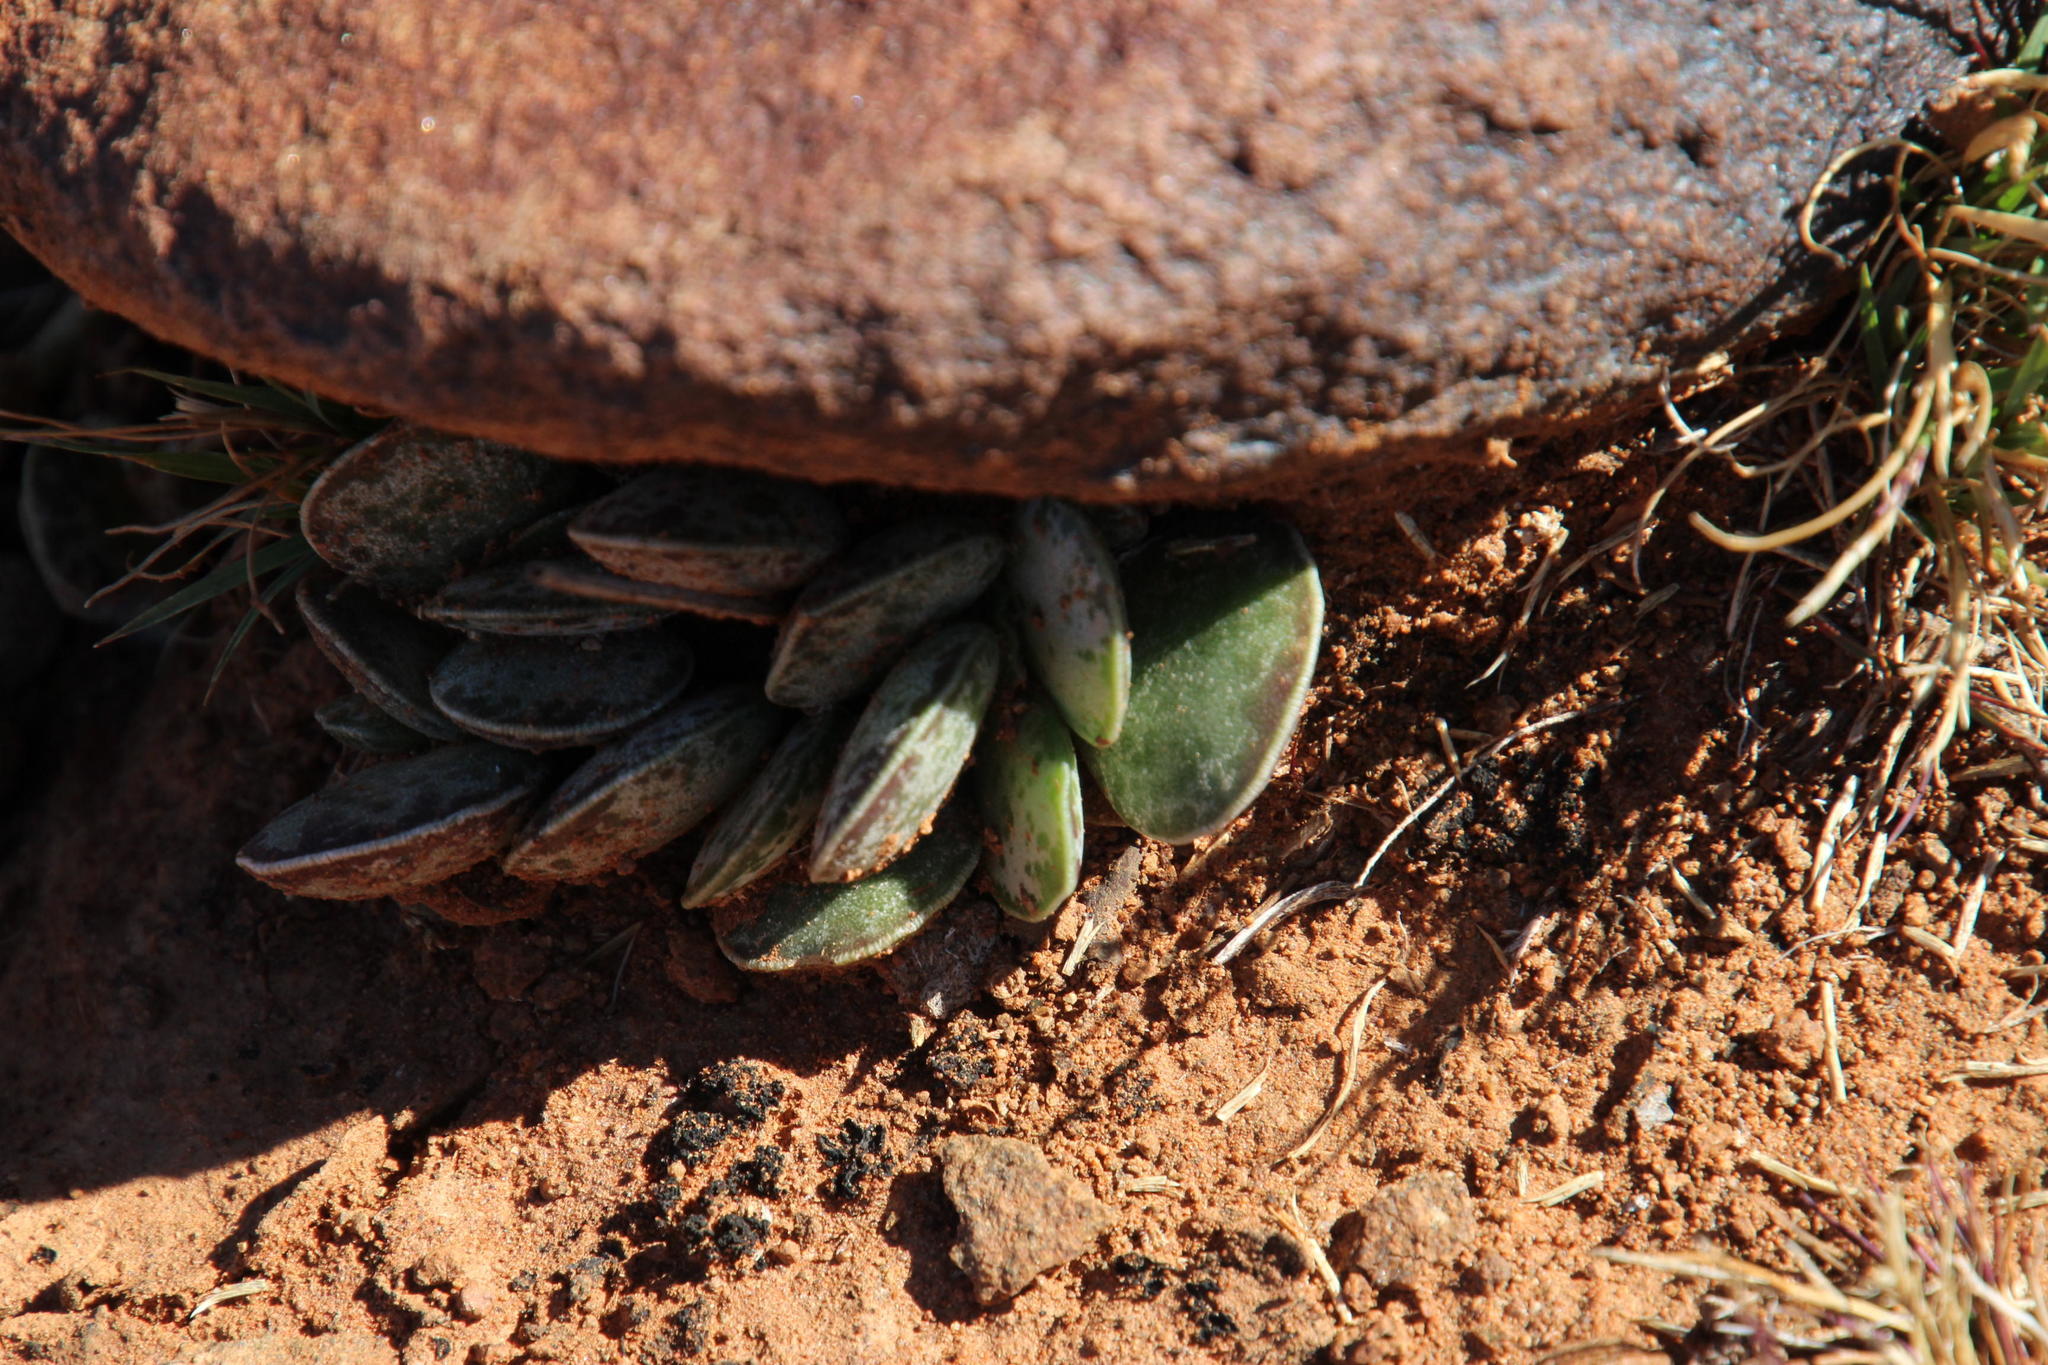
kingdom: Plantae
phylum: Tracheophyta
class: Magnoliopsida
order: Saxifragales
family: Crassulaceae
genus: Adromischus
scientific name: Adromischus trigynus
